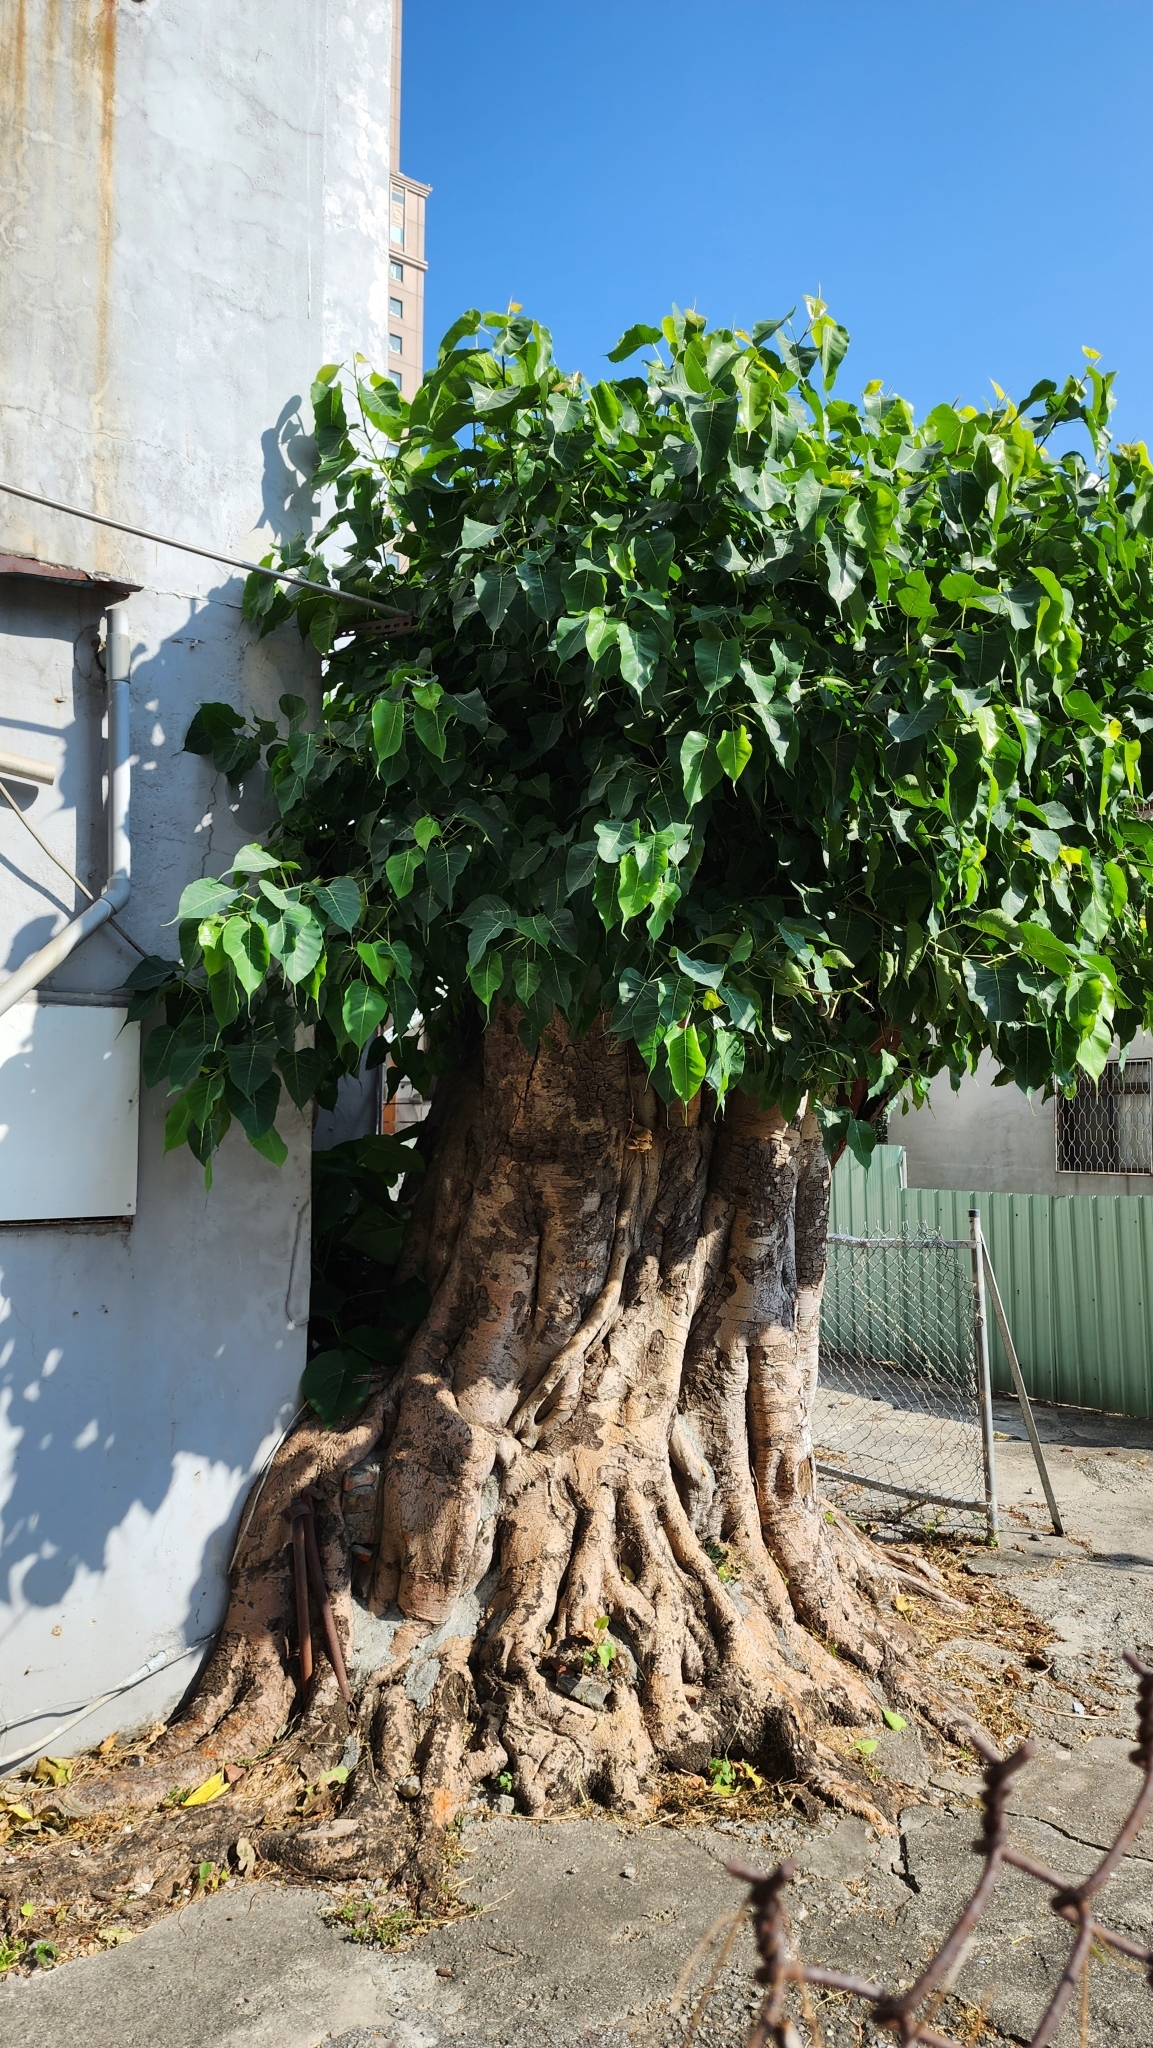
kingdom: Plantae
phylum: Tracheophyta
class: Magnoliopsida
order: Rosales
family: Moraceae
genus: Ficus
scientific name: Ficus religiosa
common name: Bodhi tree
